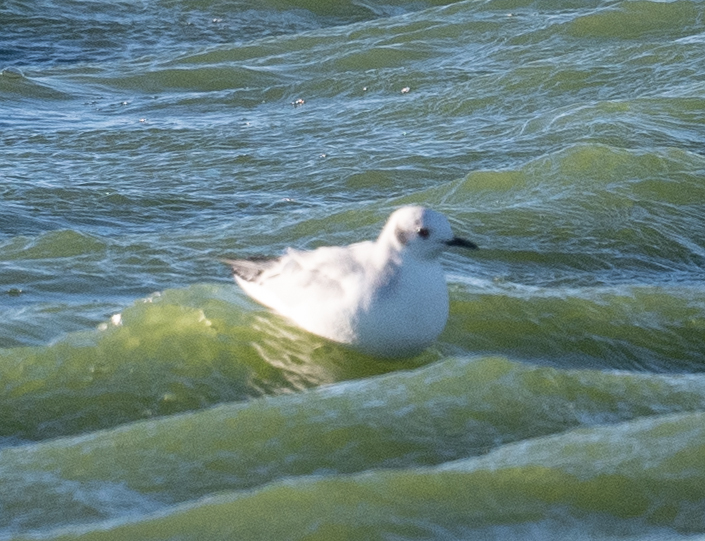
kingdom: Animalia
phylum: Chordata
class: Aves
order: Charadriiformes
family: Laridae
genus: Chroicocephalus
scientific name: Chroicocephalus philadelphia
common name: Bonaparte's gull
